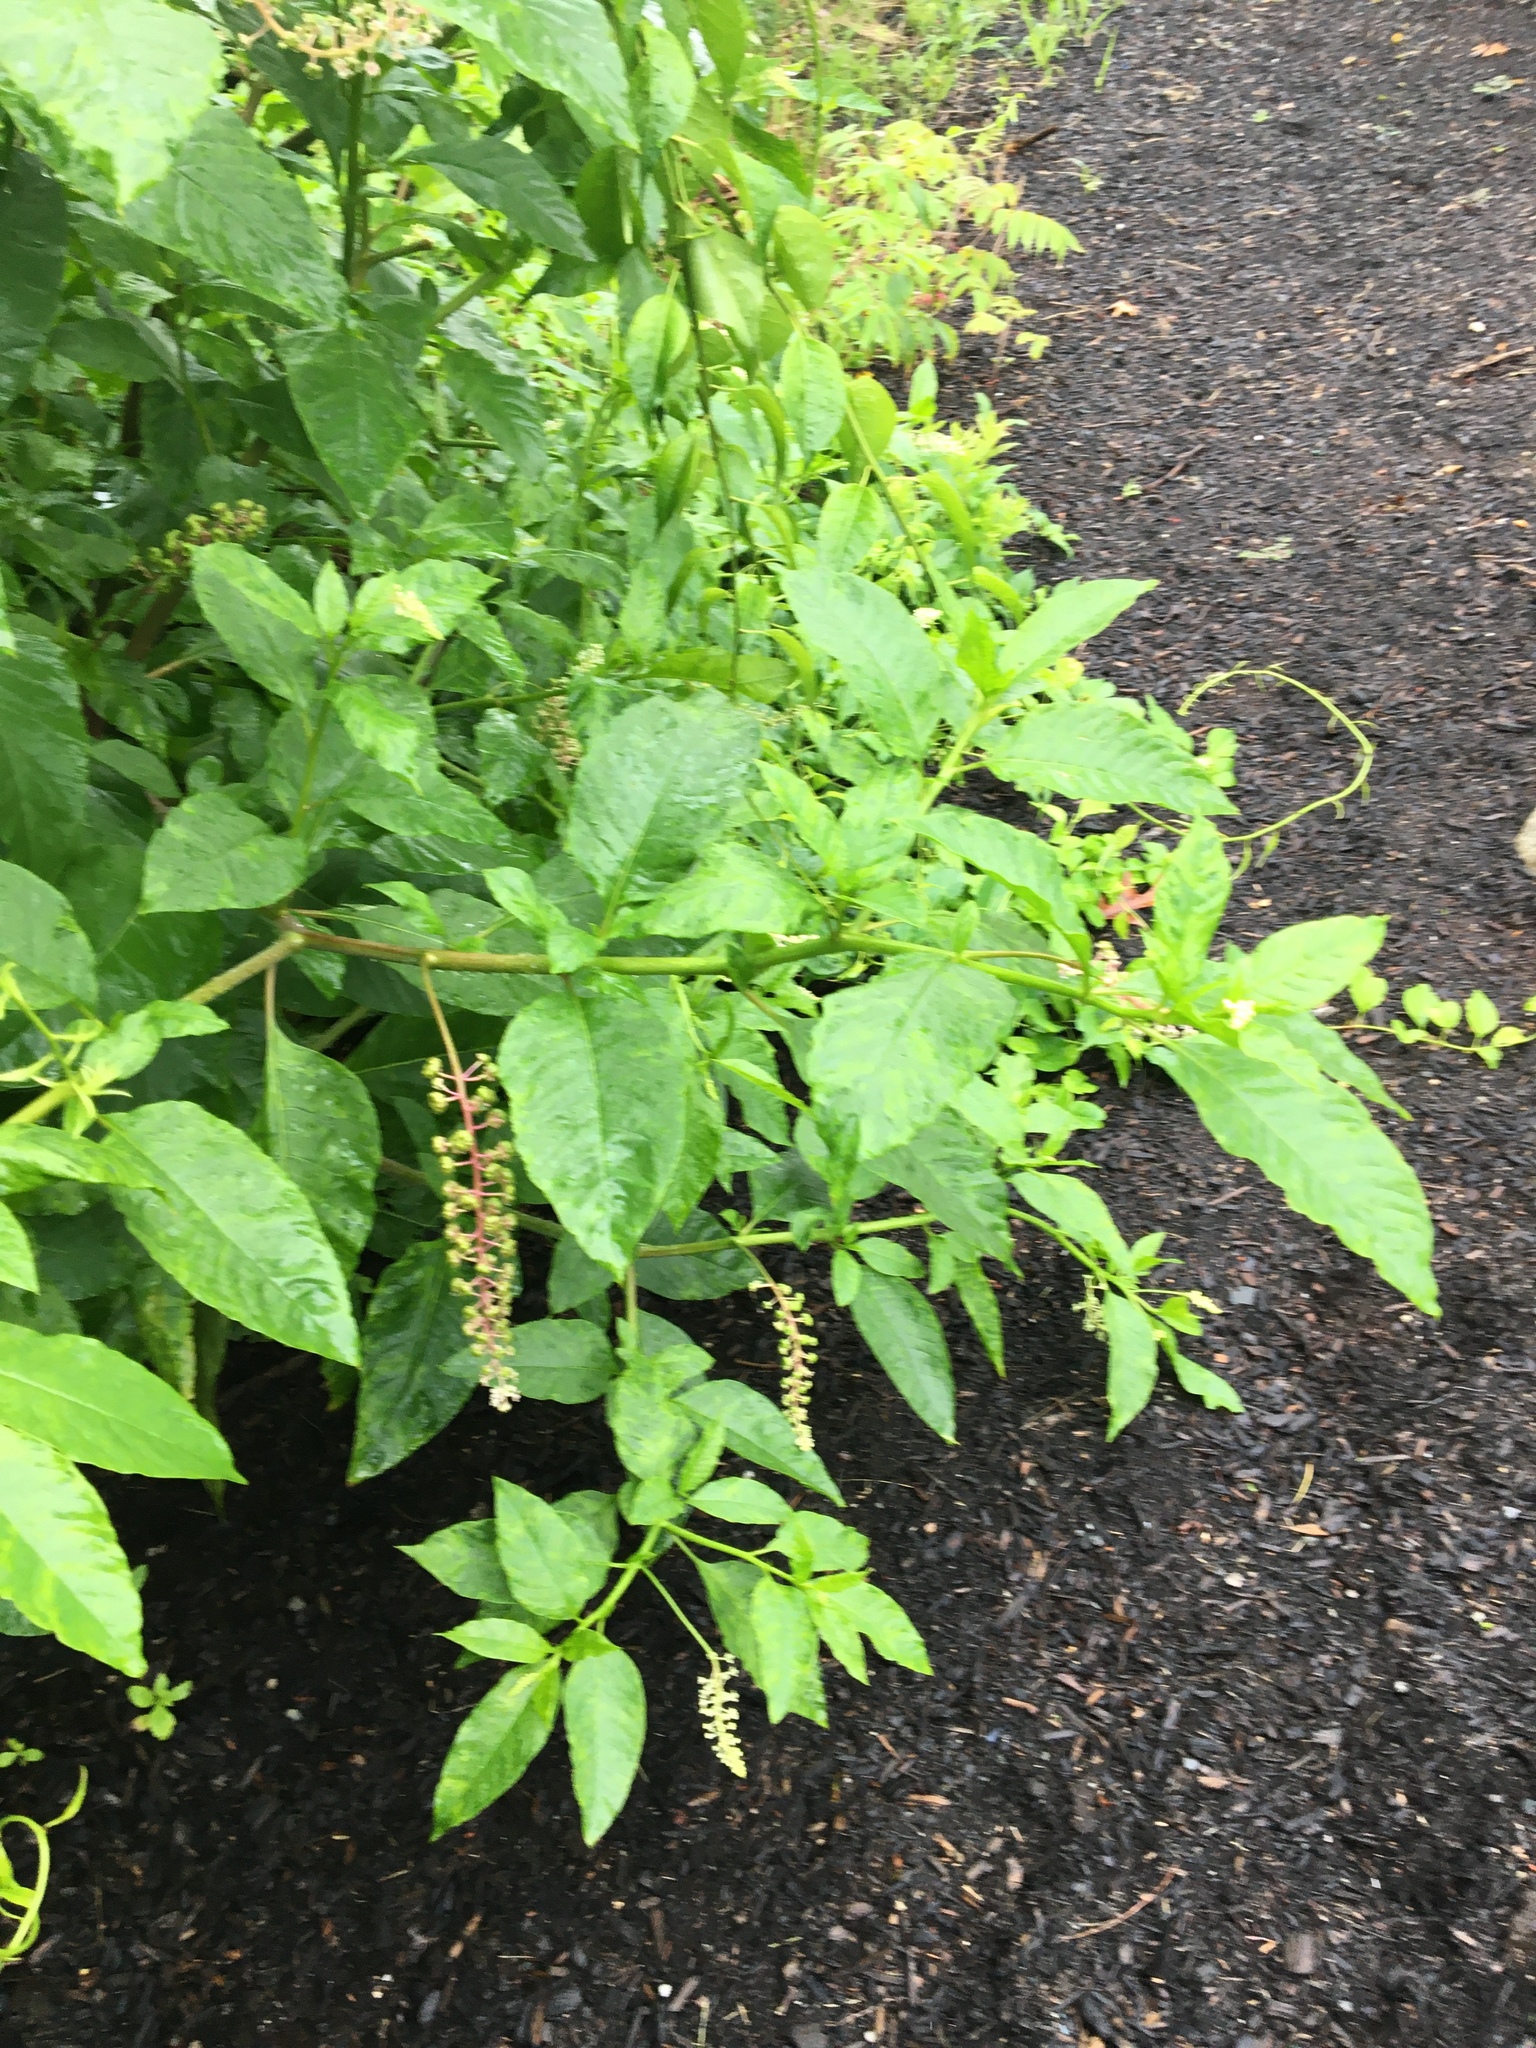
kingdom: Plantae
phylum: Tracheophyta
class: Magnoliopsida
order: Caryophyllales
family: Phytolaccaceae
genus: Phytolacca
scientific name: Phytolacca americana
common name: American pokeweed
